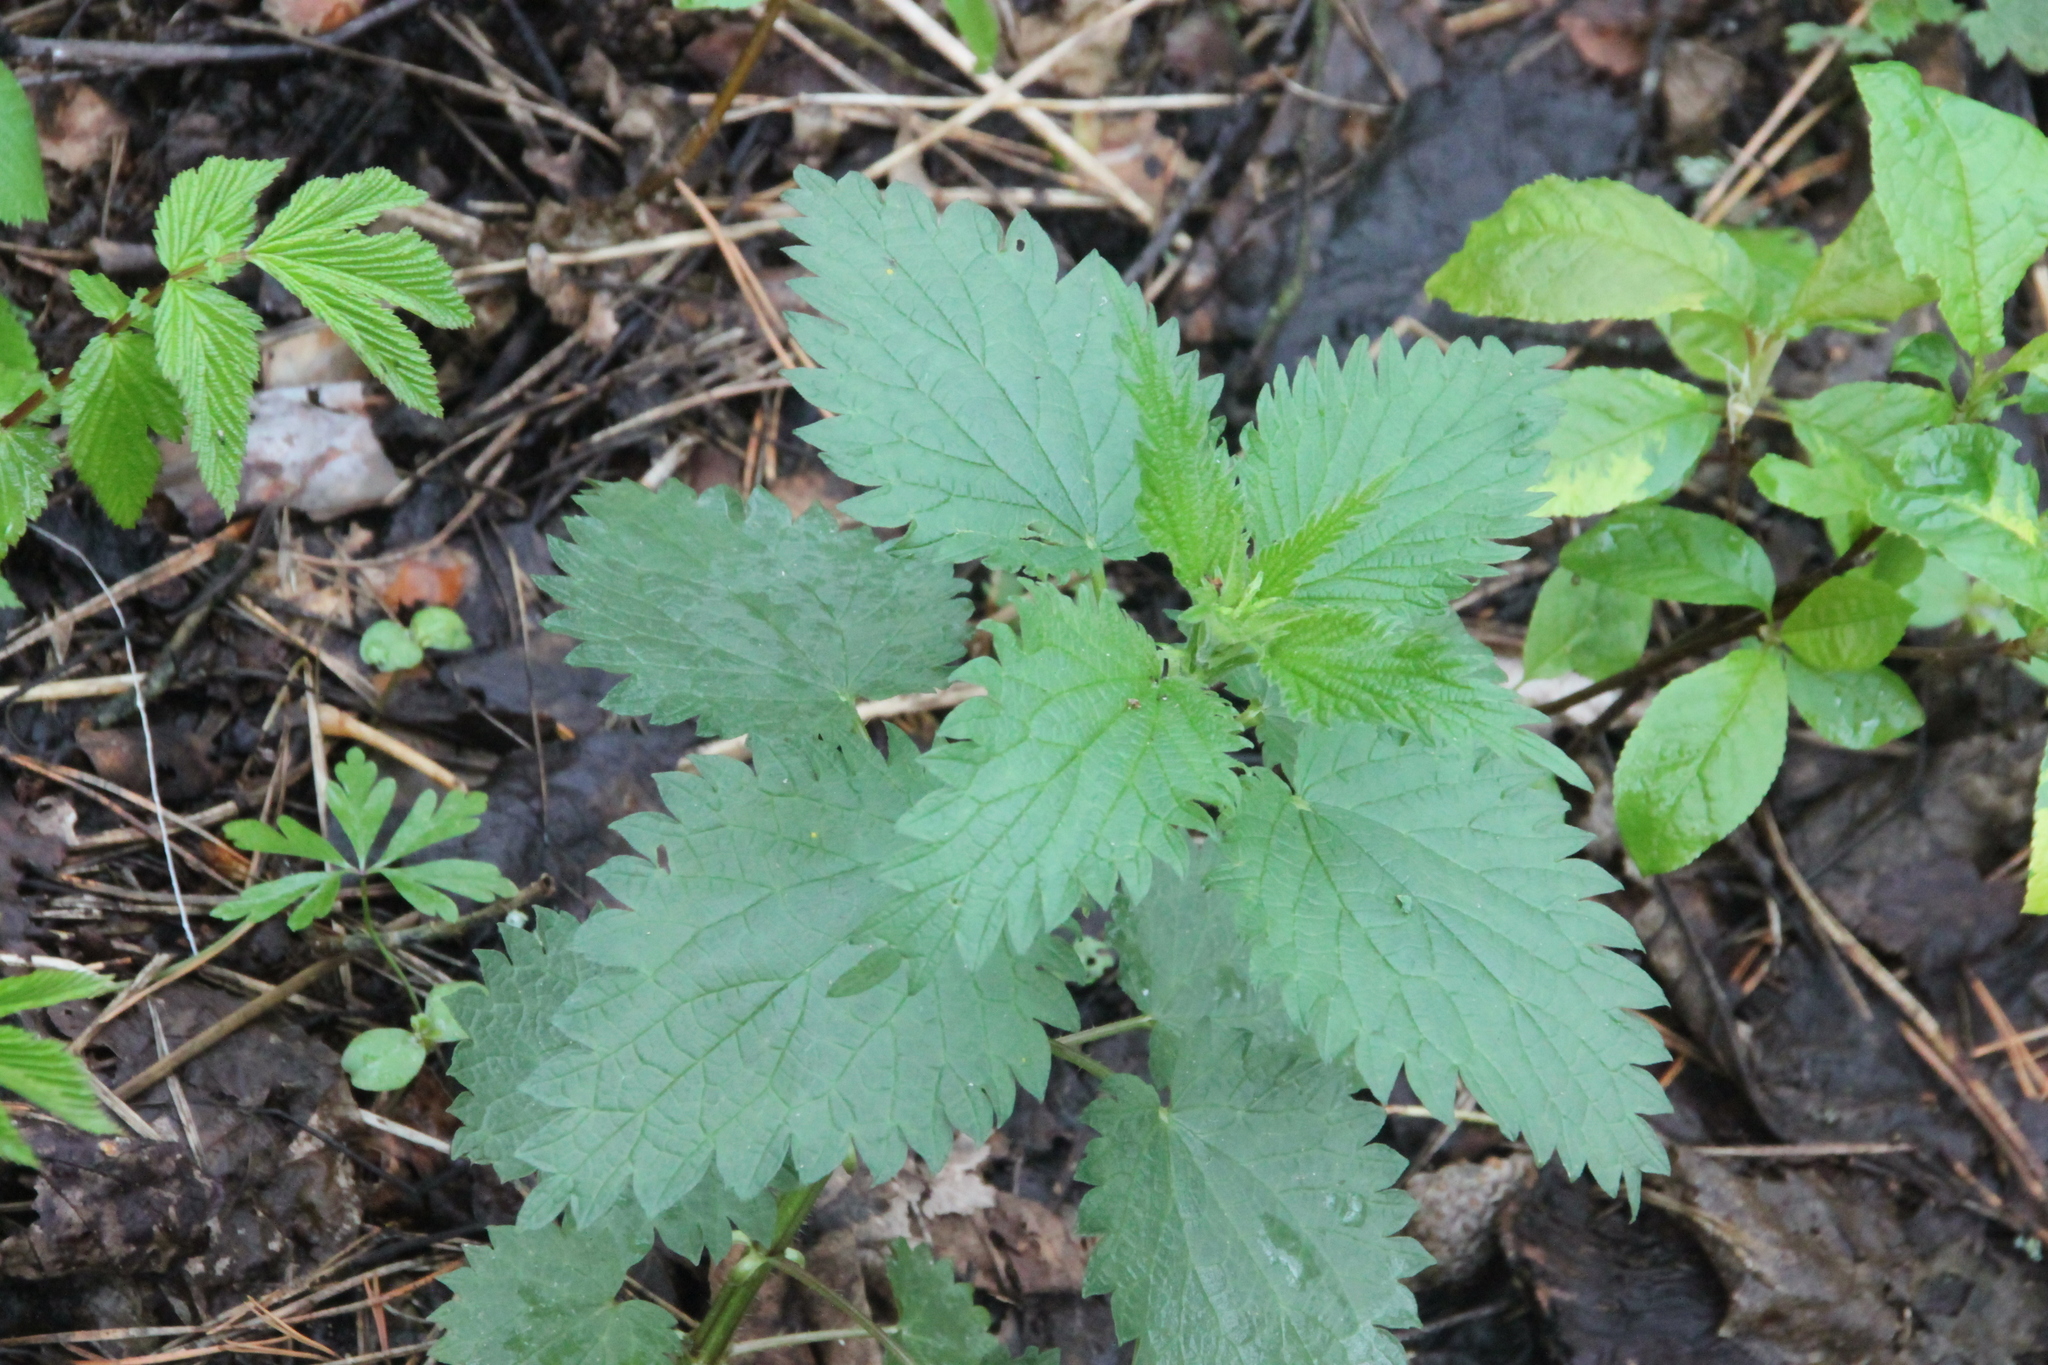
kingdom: Plantae
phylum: Tracheophyta
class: Magnoliopsida
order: Rosales
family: Urticaceae
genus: Urtica
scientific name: Urtica dioica
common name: Common nettle
